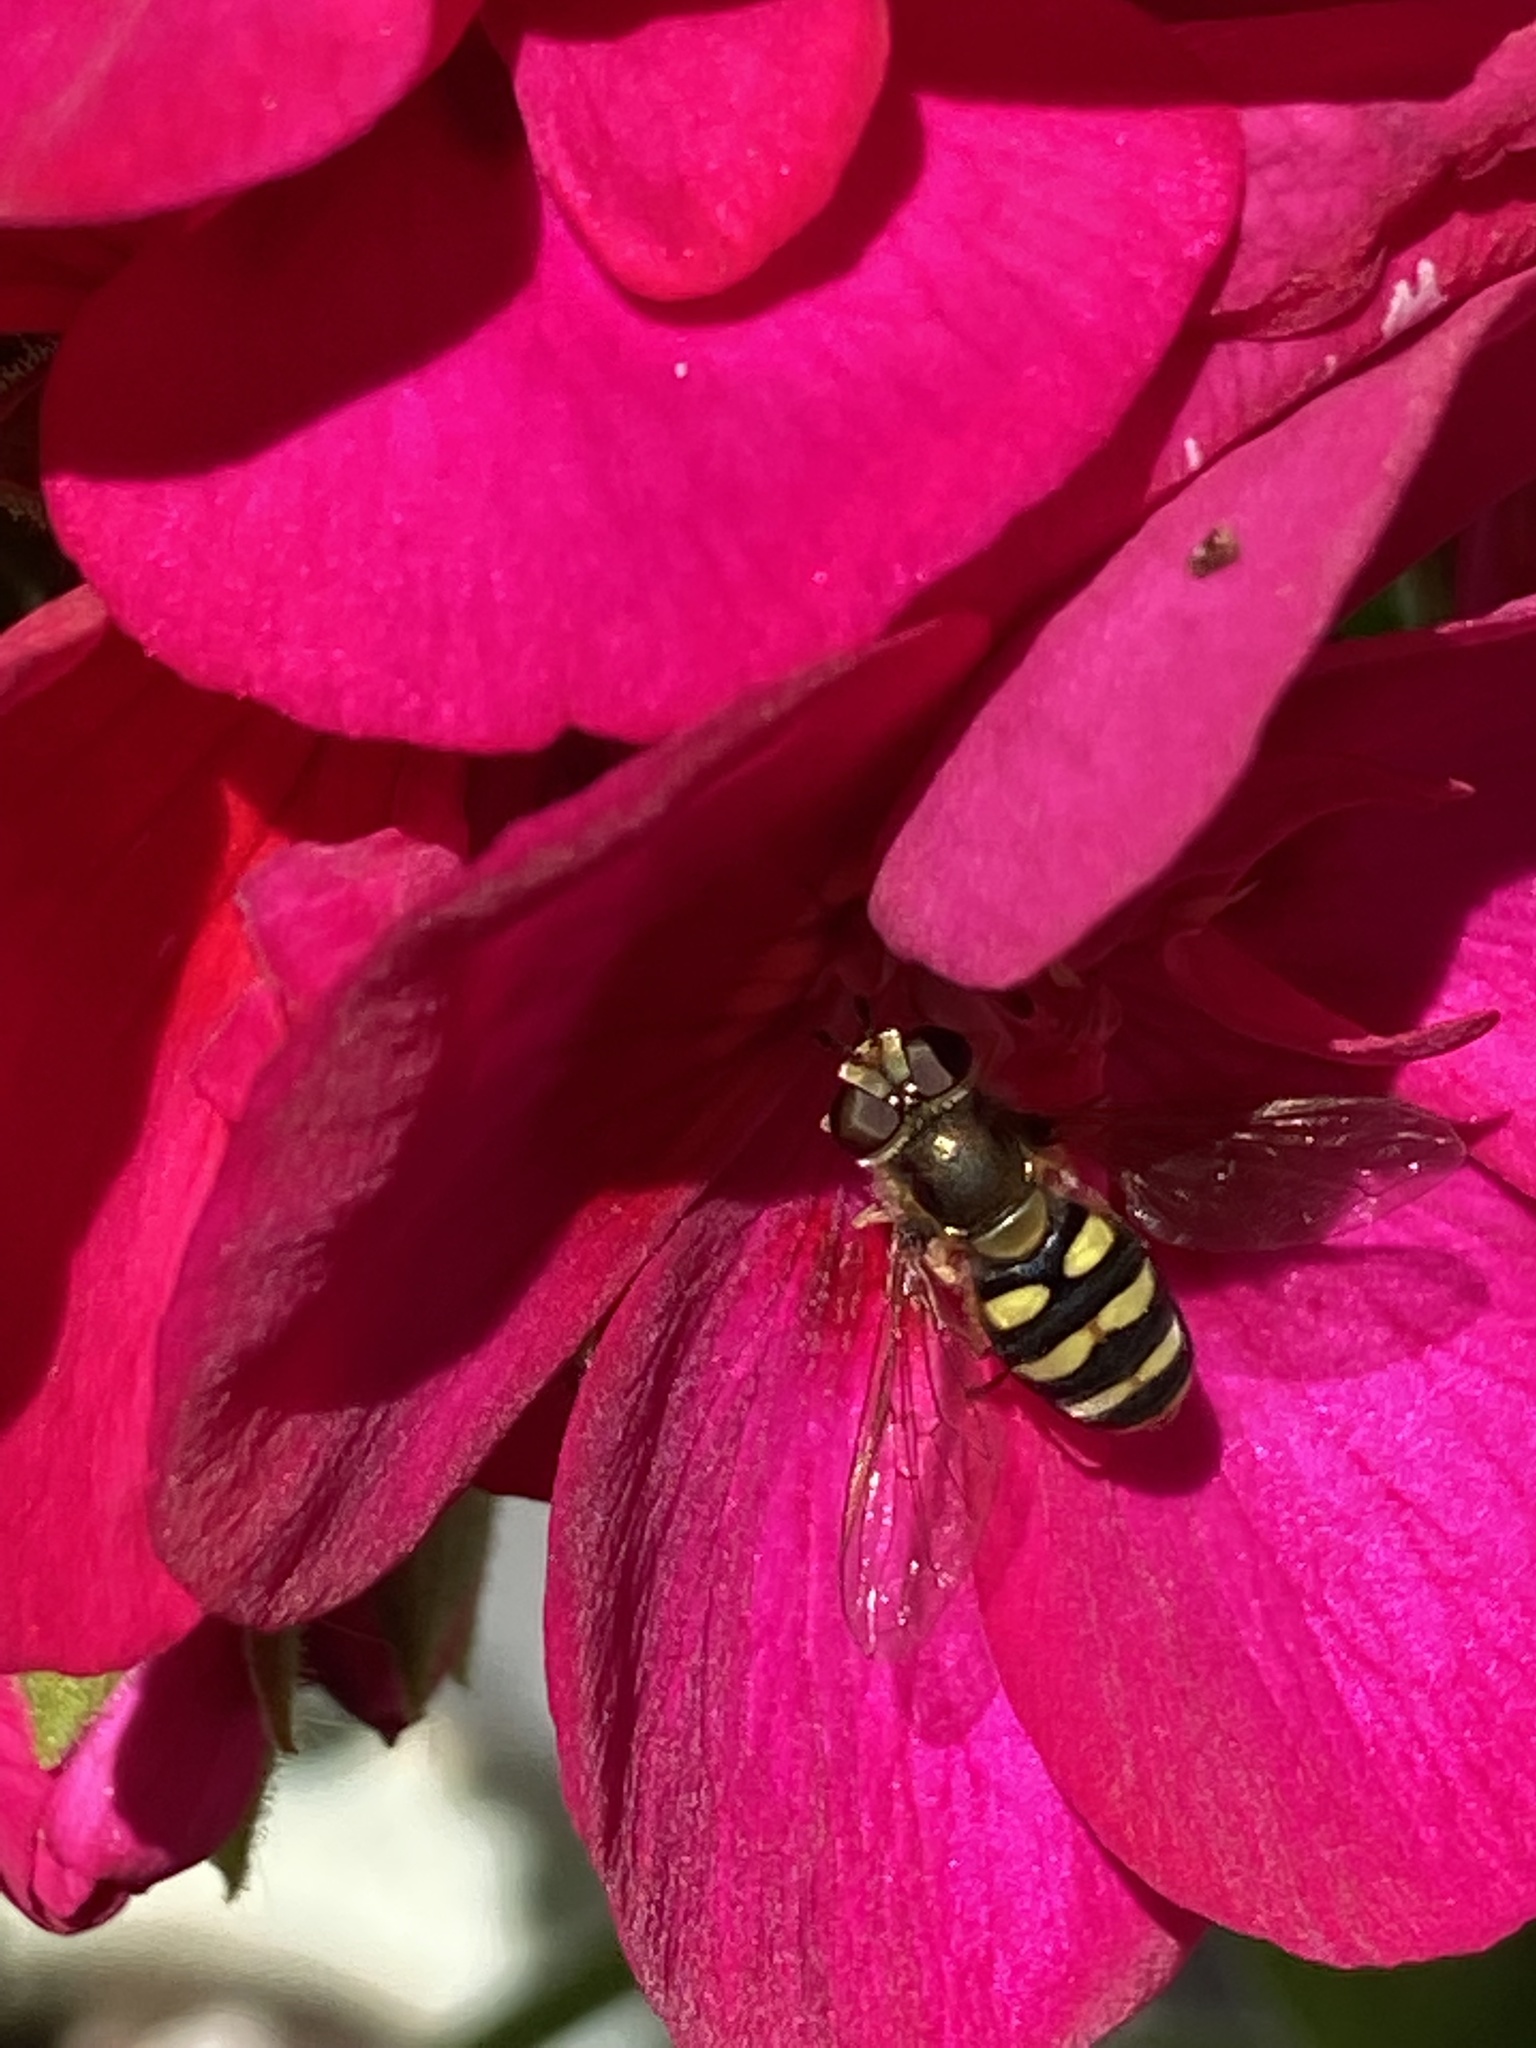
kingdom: Animalia
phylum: Arthropoda
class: Insecta
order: Diptera
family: Syrphidae
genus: Eupeodes
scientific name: Eupeodes fumipennis
